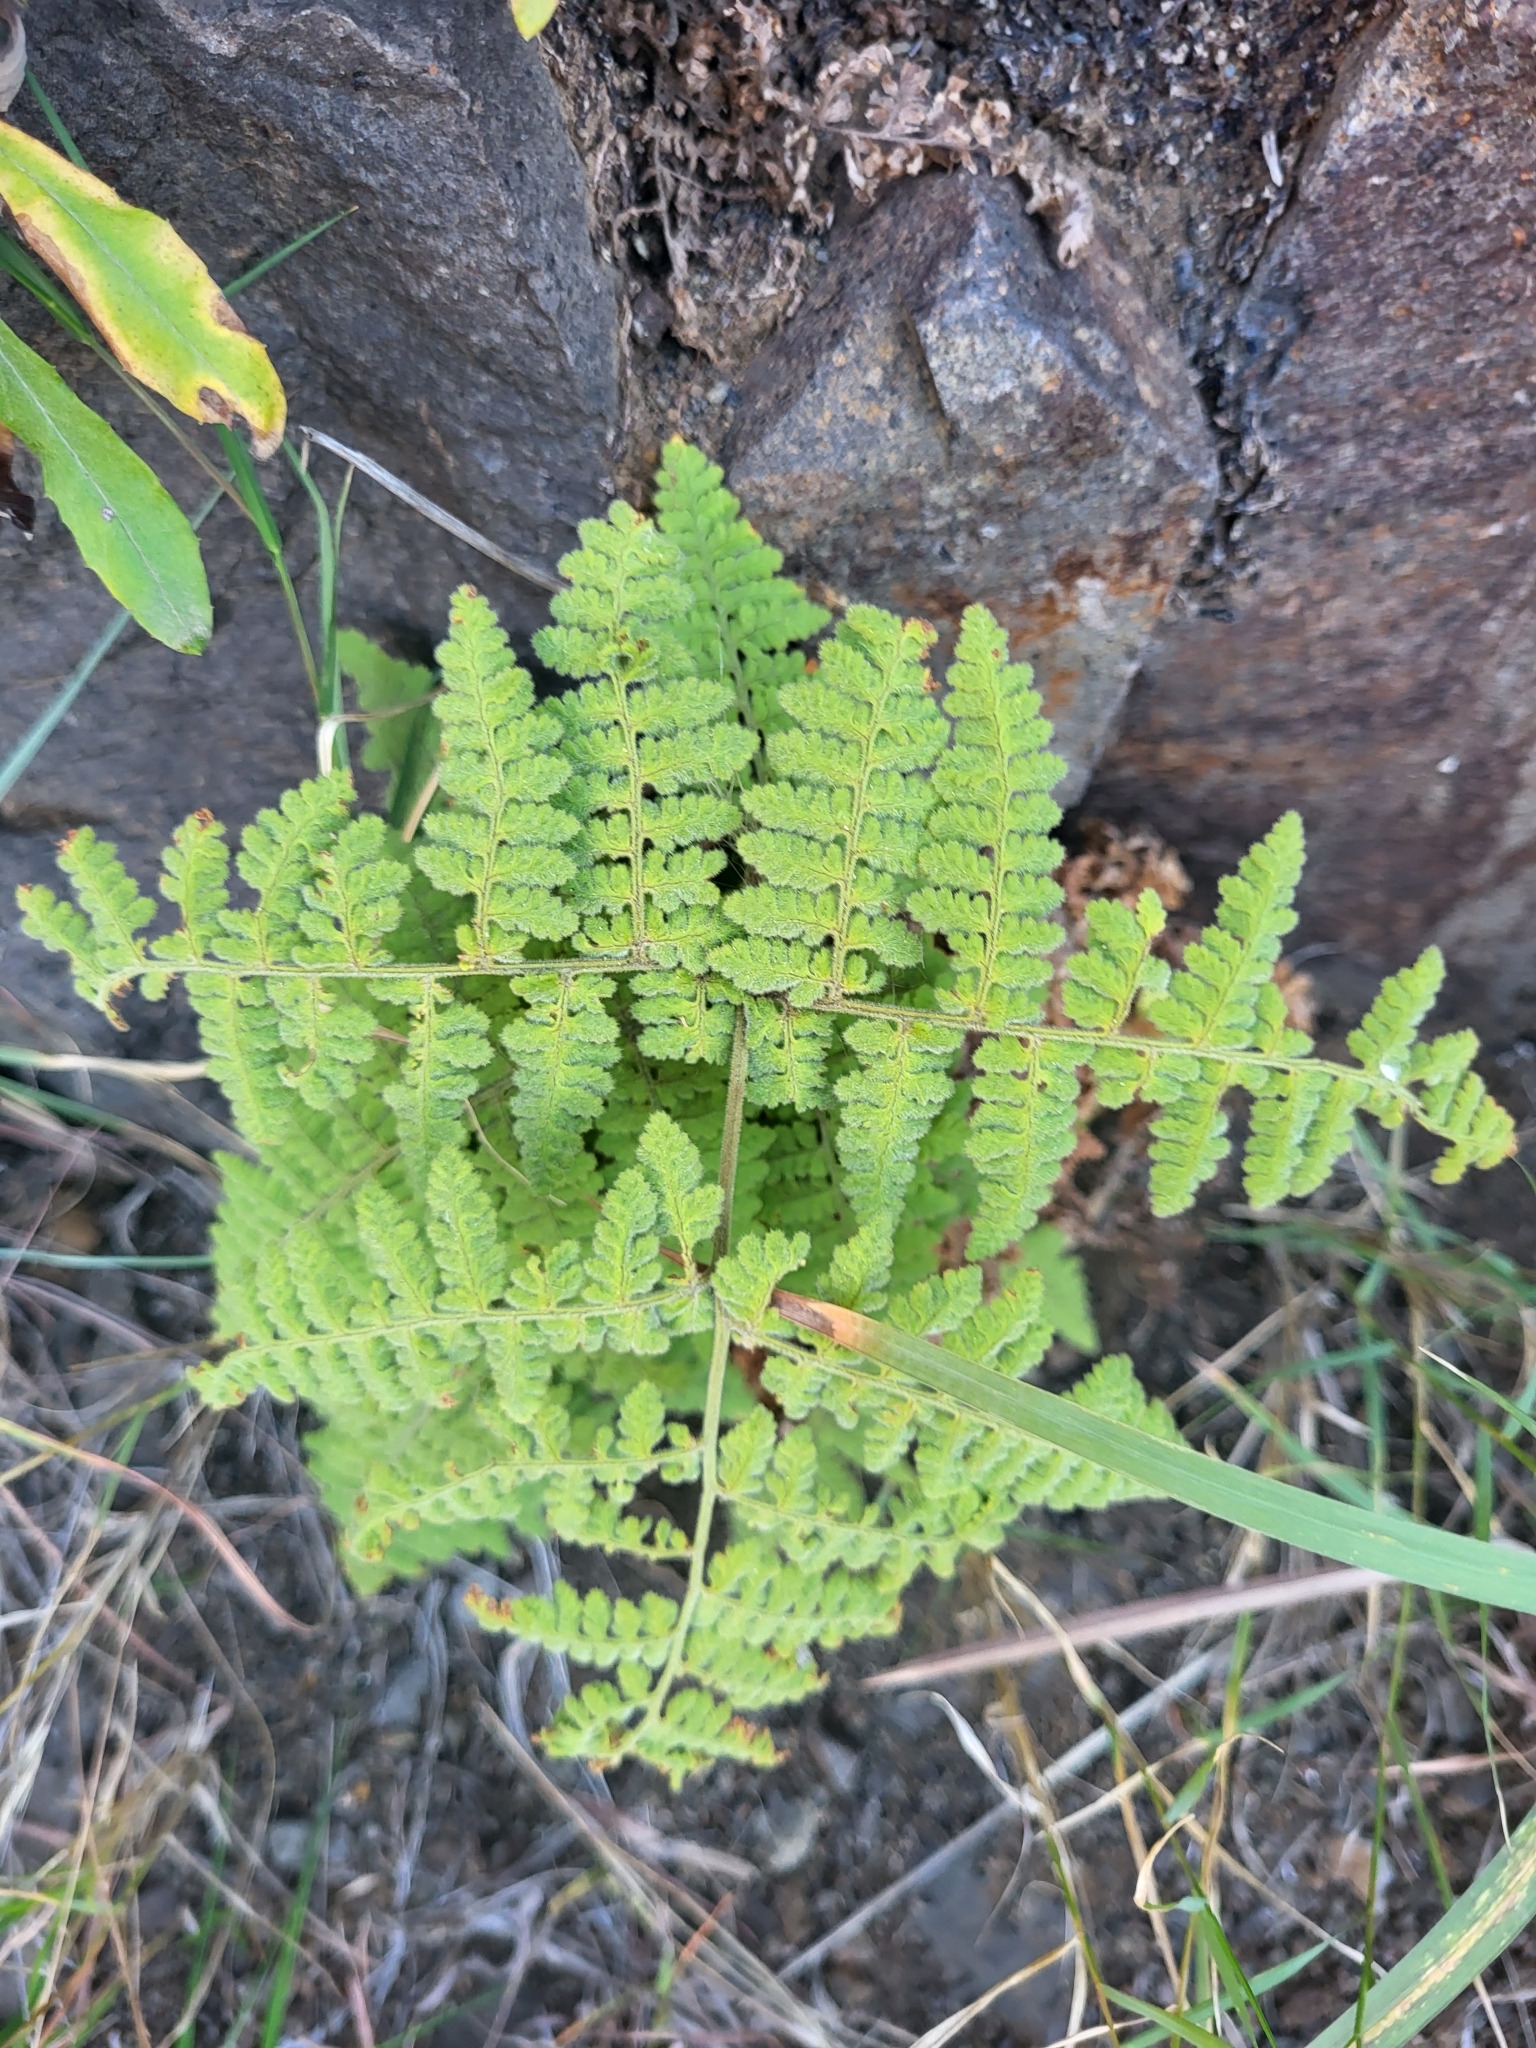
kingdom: Plantae
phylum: Tracheophyta
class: Polypodiopsida
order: Polypodiales
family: Hypodematiaceae
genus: Hypodematium
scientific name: Hypodematium chrysolepis
